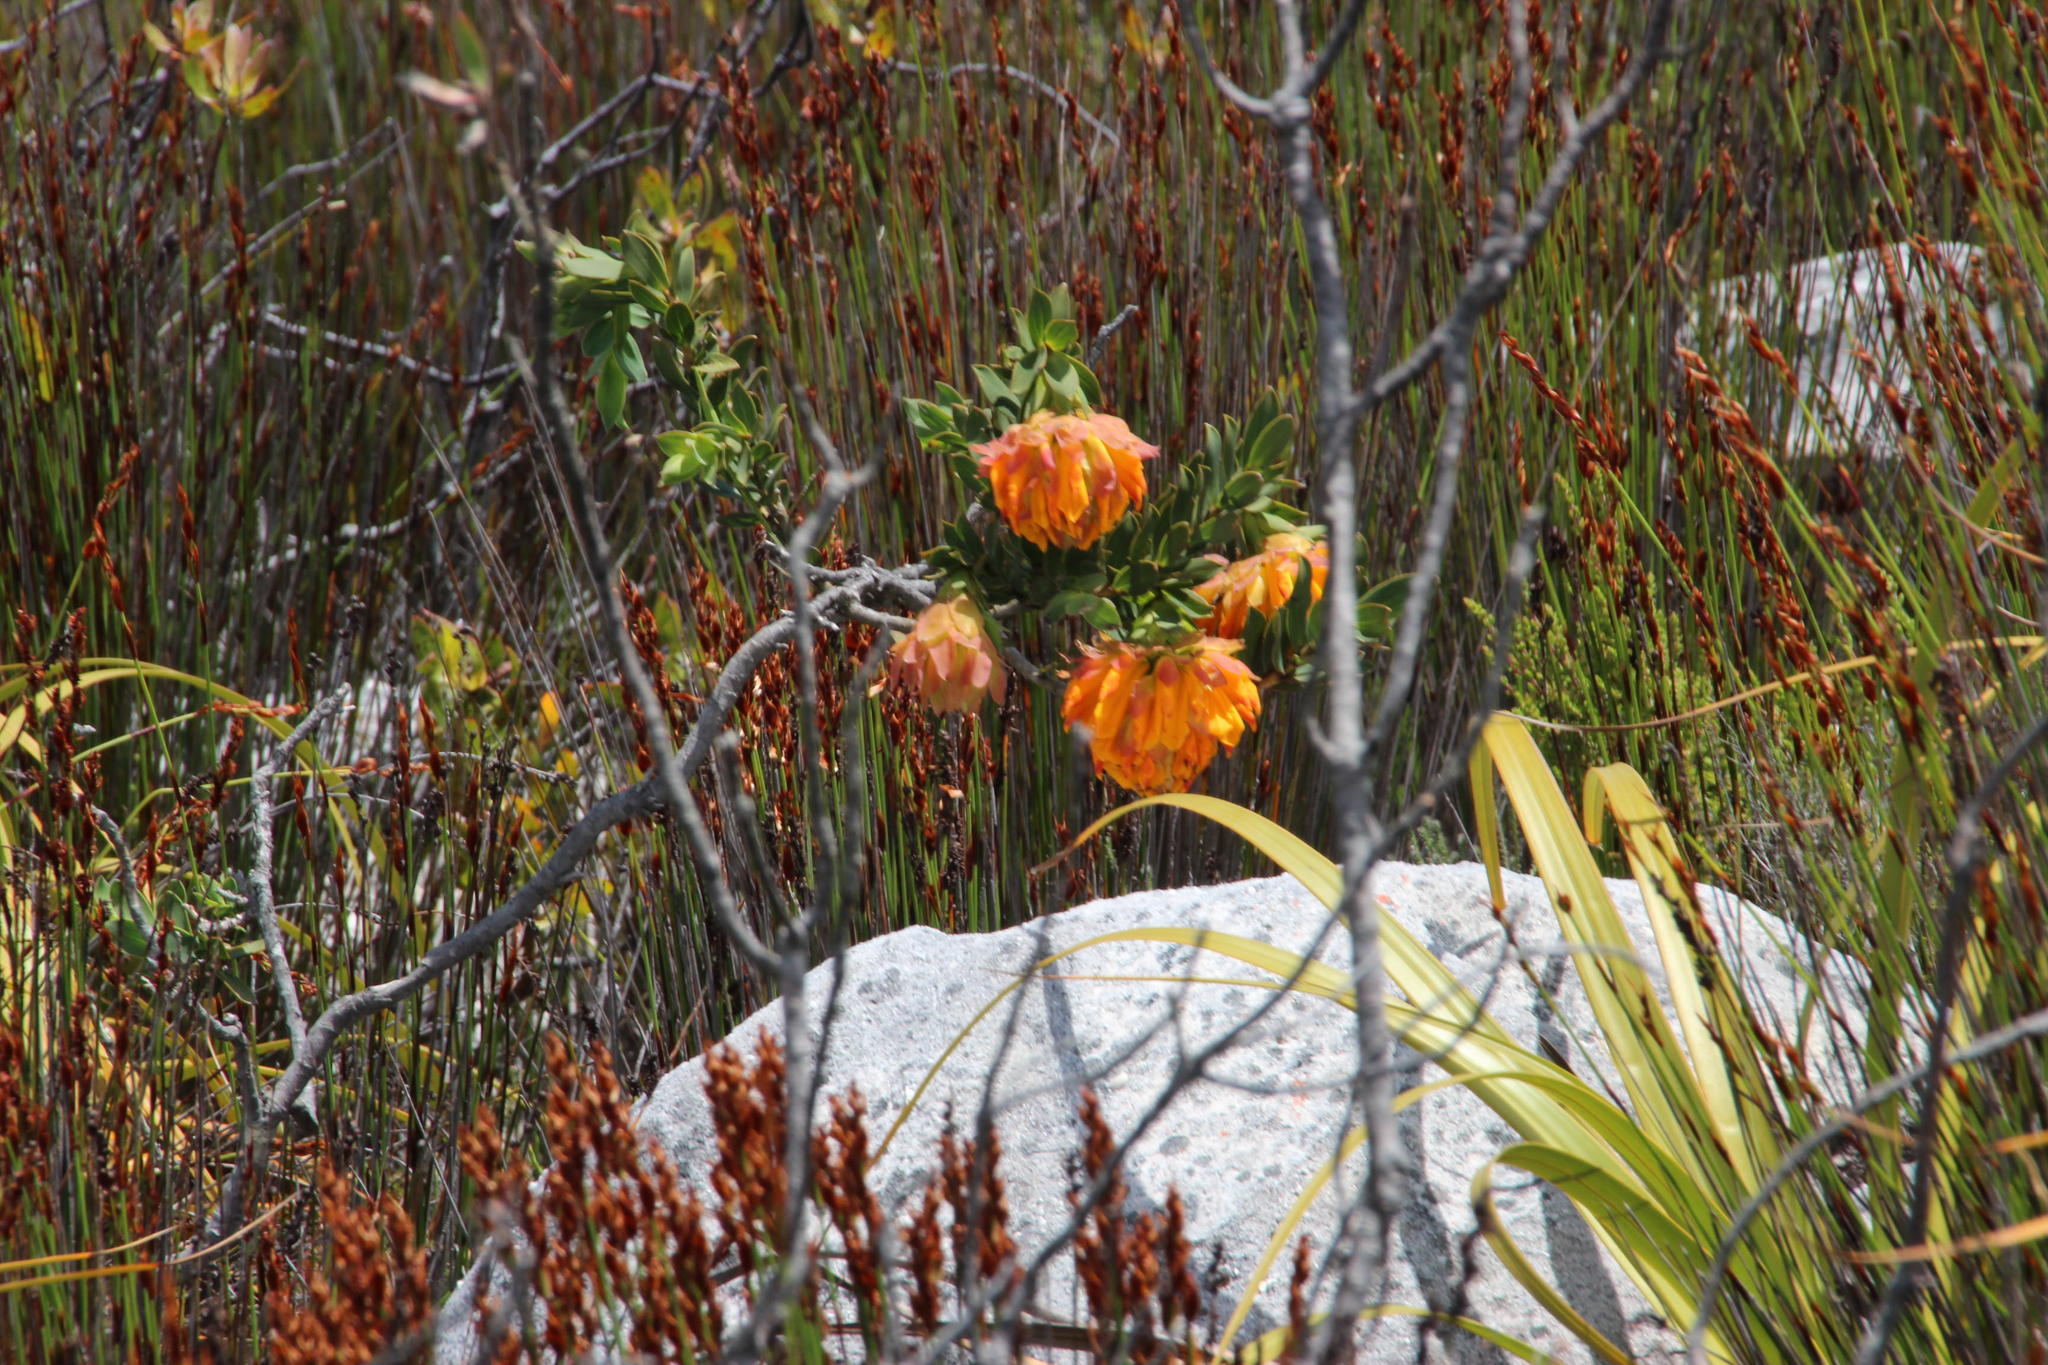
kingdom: Plantae
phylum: Tracheophyta
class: Magnoliopsida
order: Fabales
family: Fabaceae
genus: Liparia
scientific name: Liparia splendens
